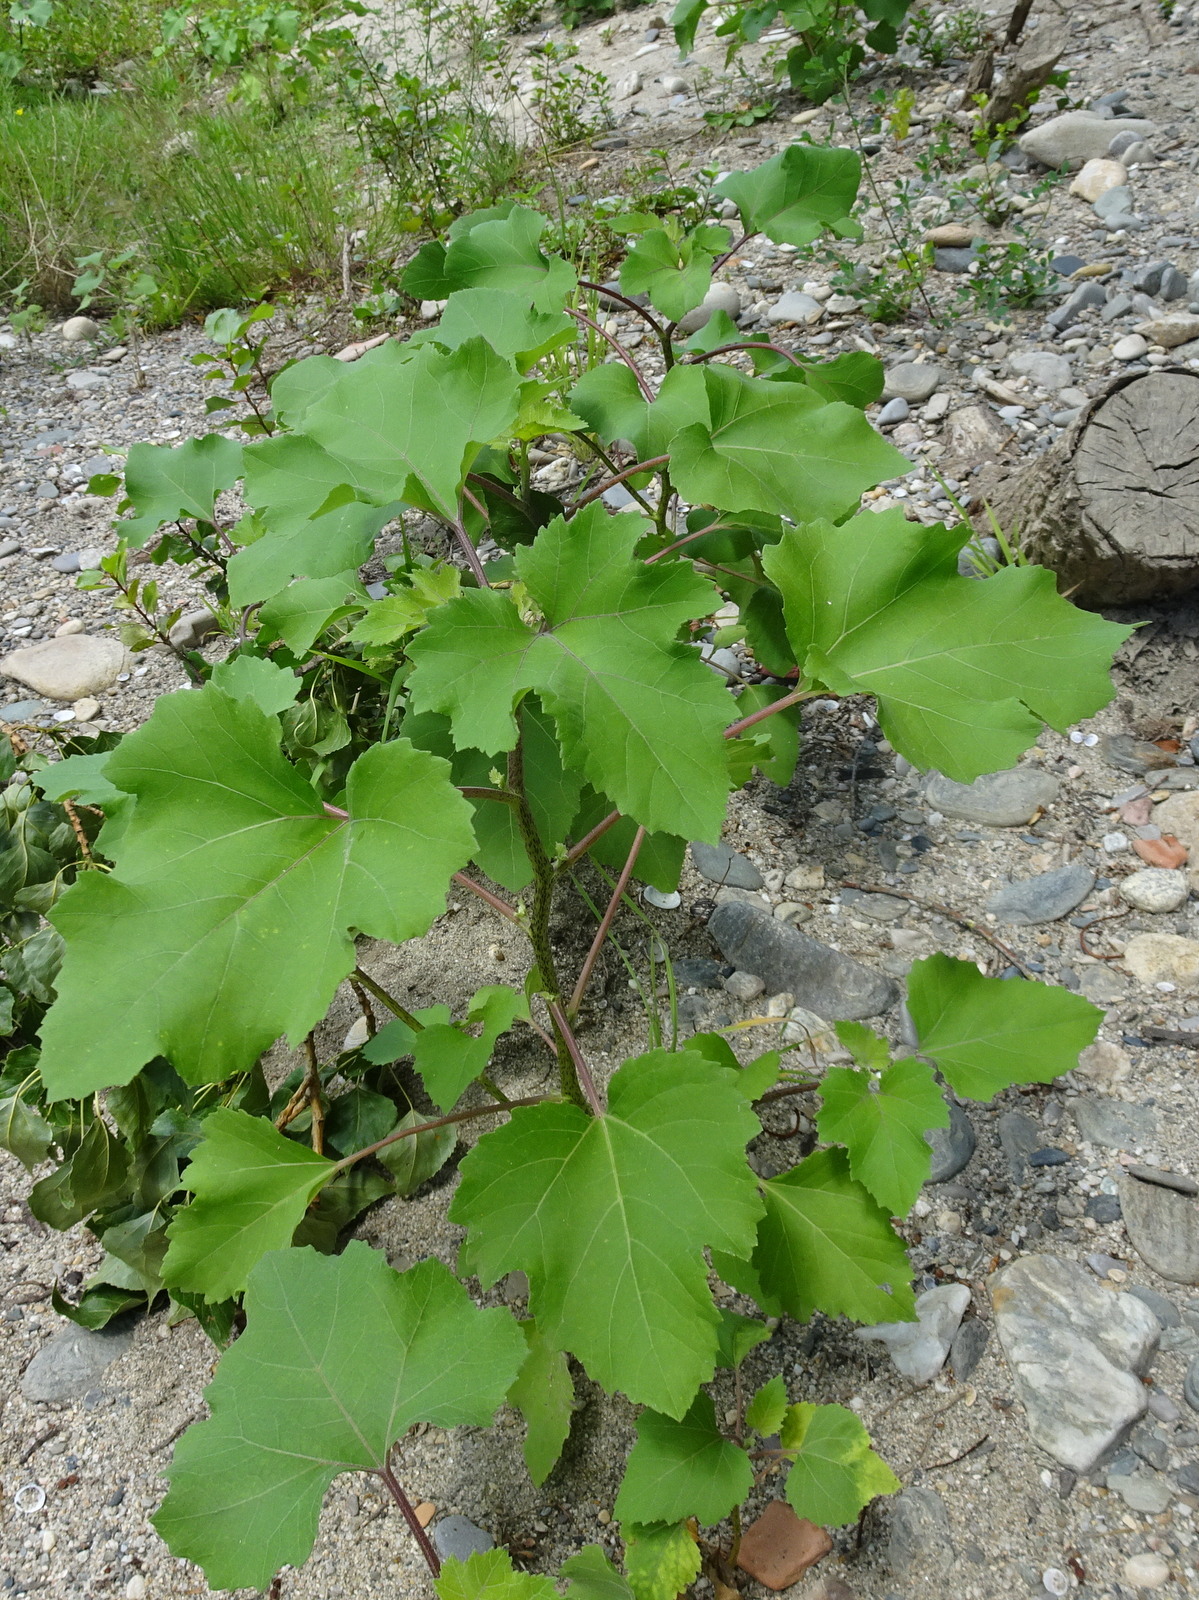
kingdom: Plantae
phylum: Tracheophyta
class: Magnoliopsida
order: Asterales
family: Asteraceae
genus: Xanthium
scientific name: Xanthium orientale
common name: Californian burr
